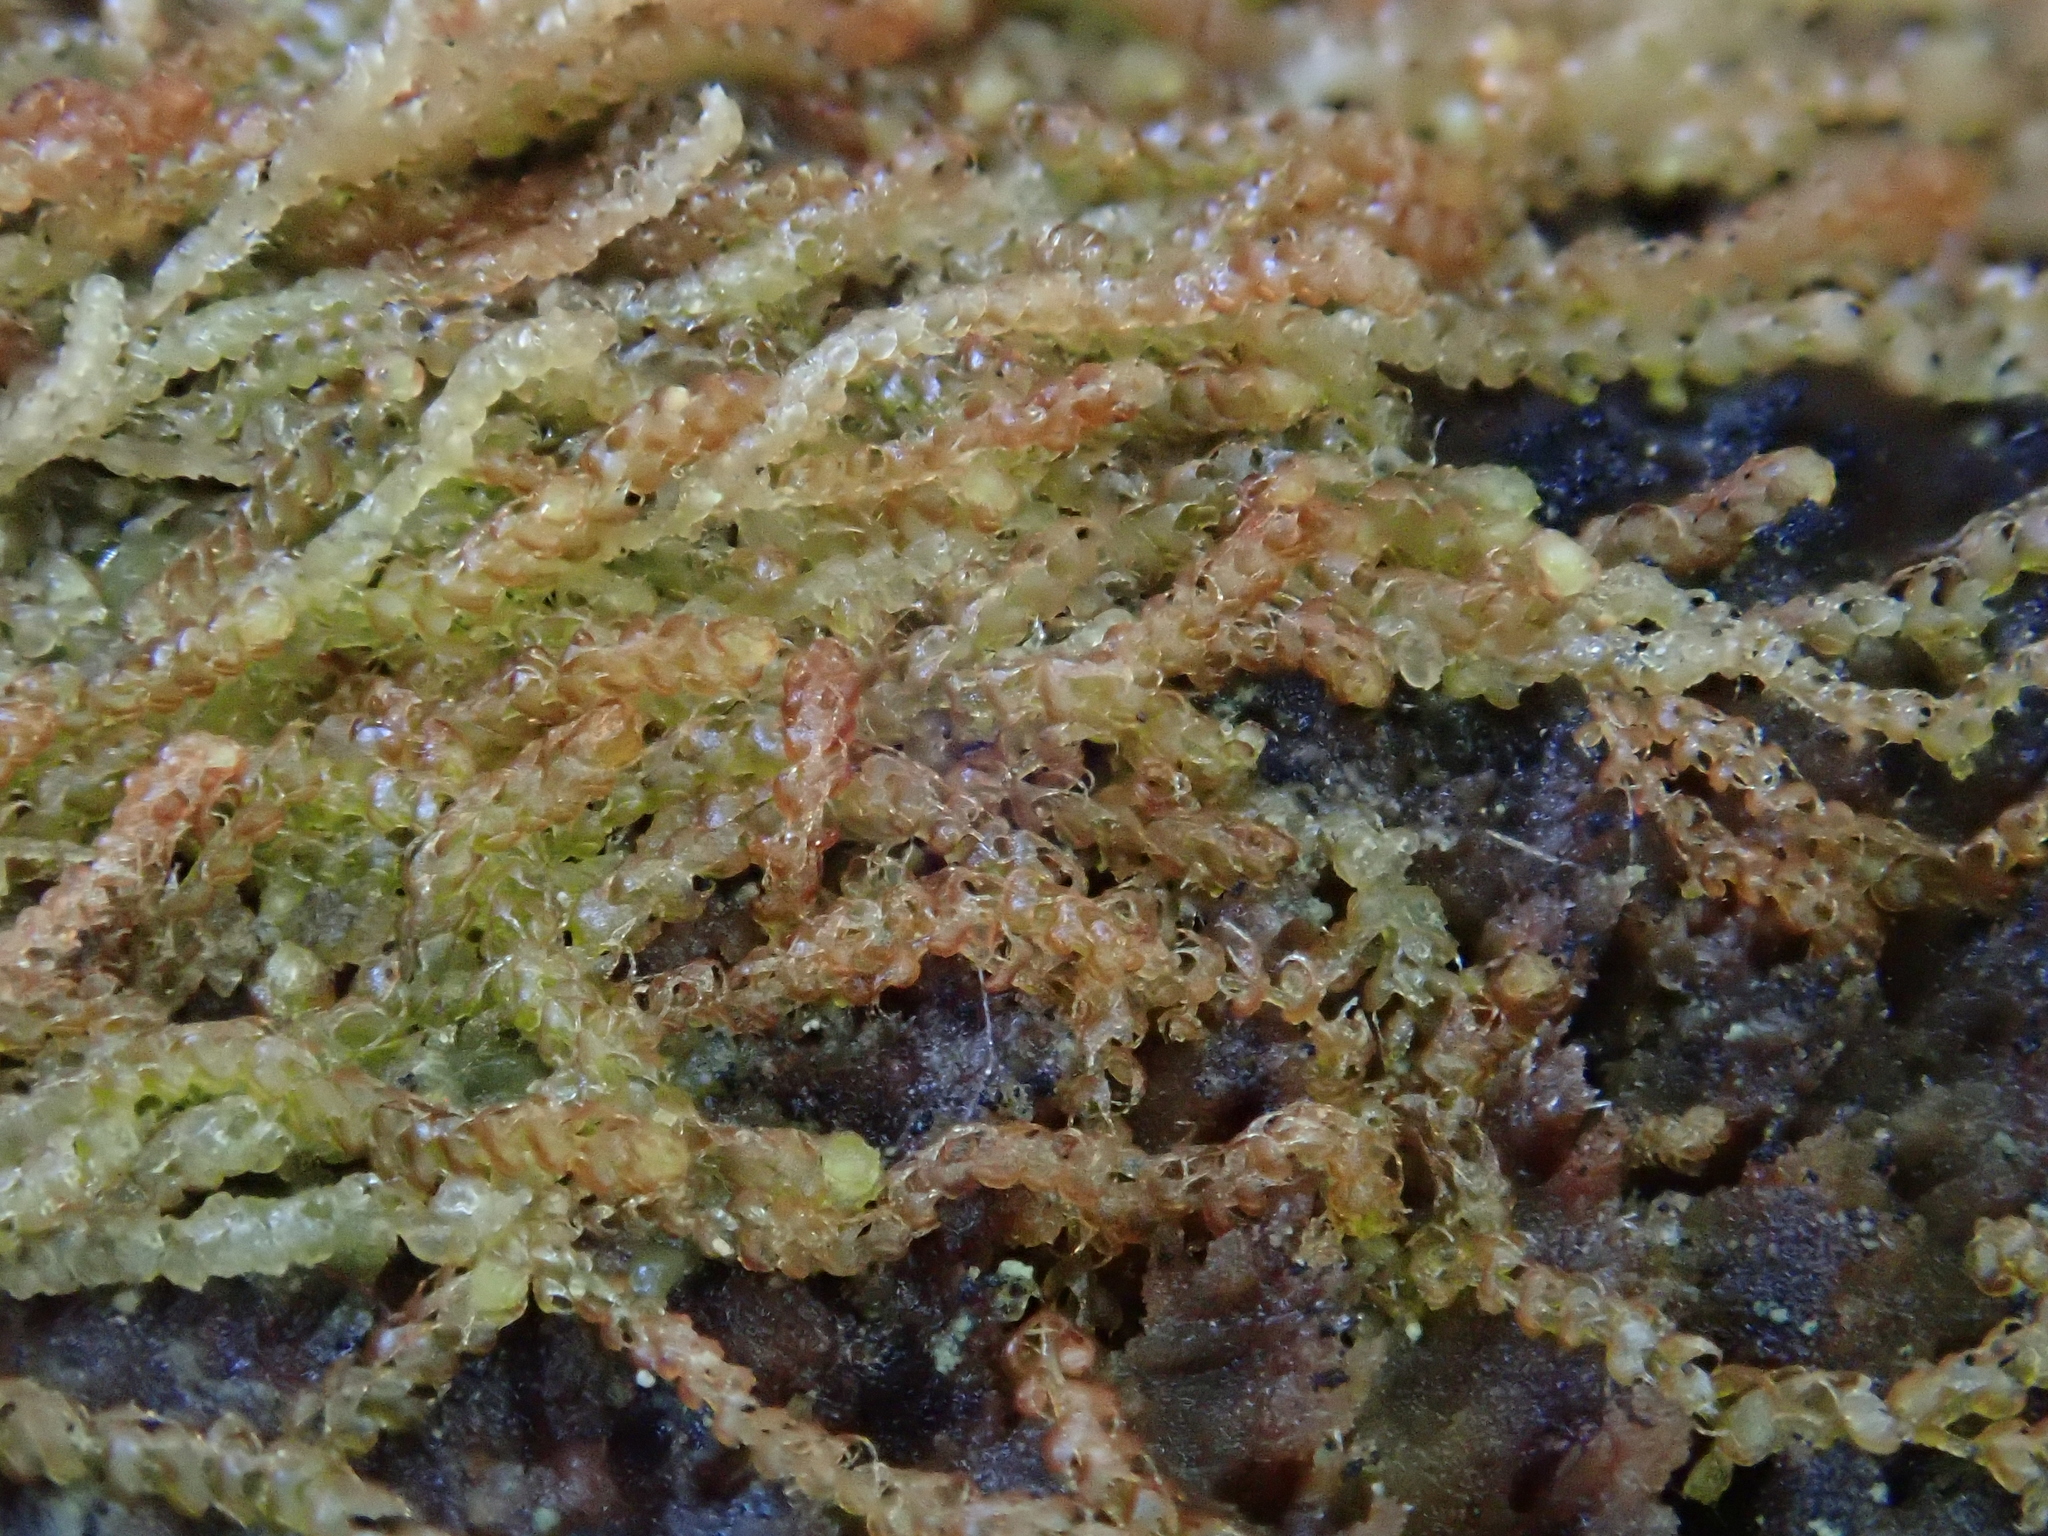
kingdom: Plantae
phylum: Marchantiophyta
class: Jungermanniopsida
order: Jungermanniales
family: Cephaloziaceae
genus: Nowellia
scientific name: Nowellia curvifolia
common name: Wood rustwort
